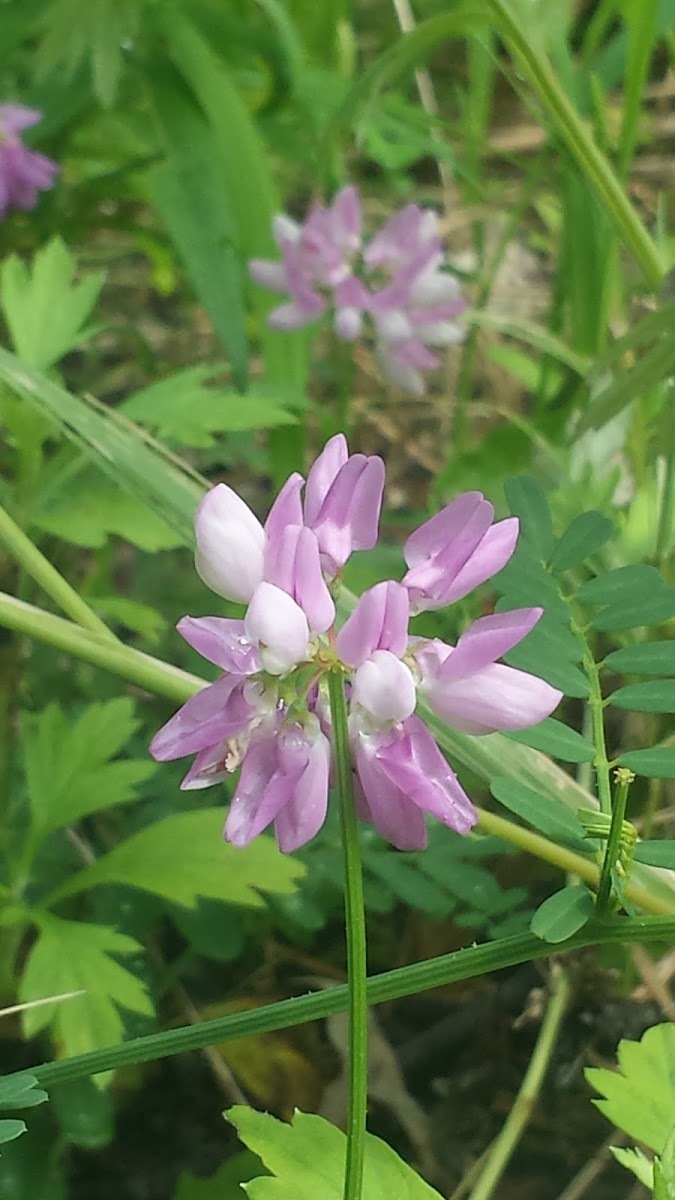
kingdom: Plantae
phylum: Tracheophyta
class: Magnoliopsida
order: Fabales
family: Fabaceae
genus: Coronilla
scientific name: Coronilla varia
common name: Crownvetch
